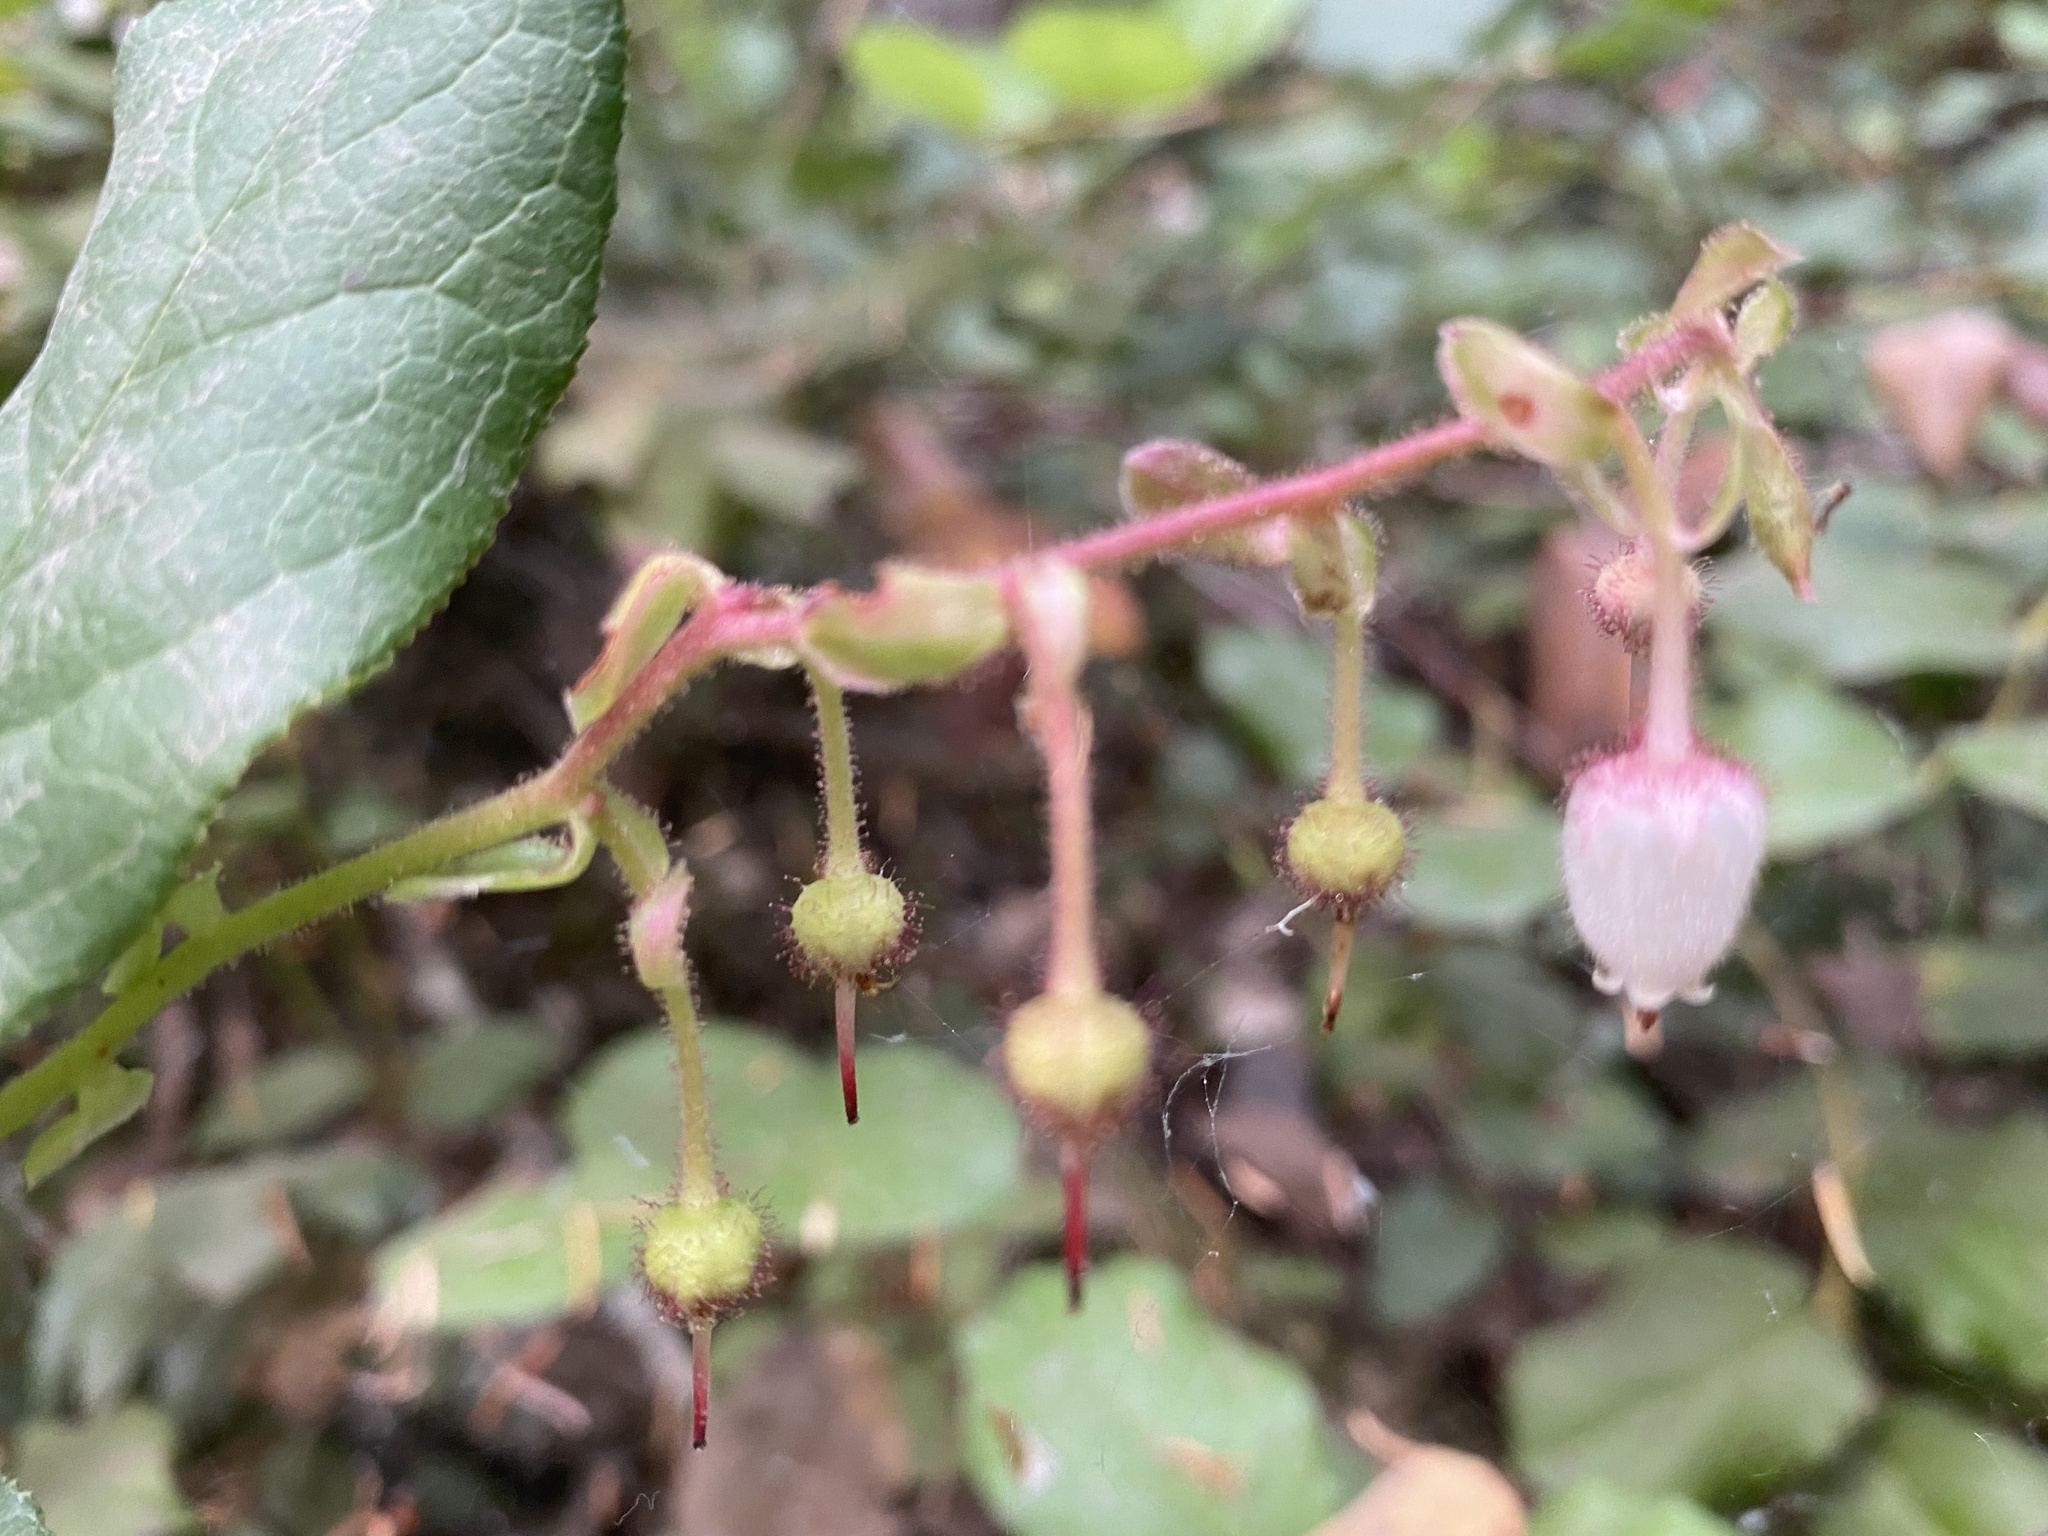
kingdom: Plantae
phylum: Tracheophyta
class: Magnoliopsida
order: Ericales
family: Ericaceae
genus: Gaultheria
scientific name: Gaultheria shallon
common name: Shallon
